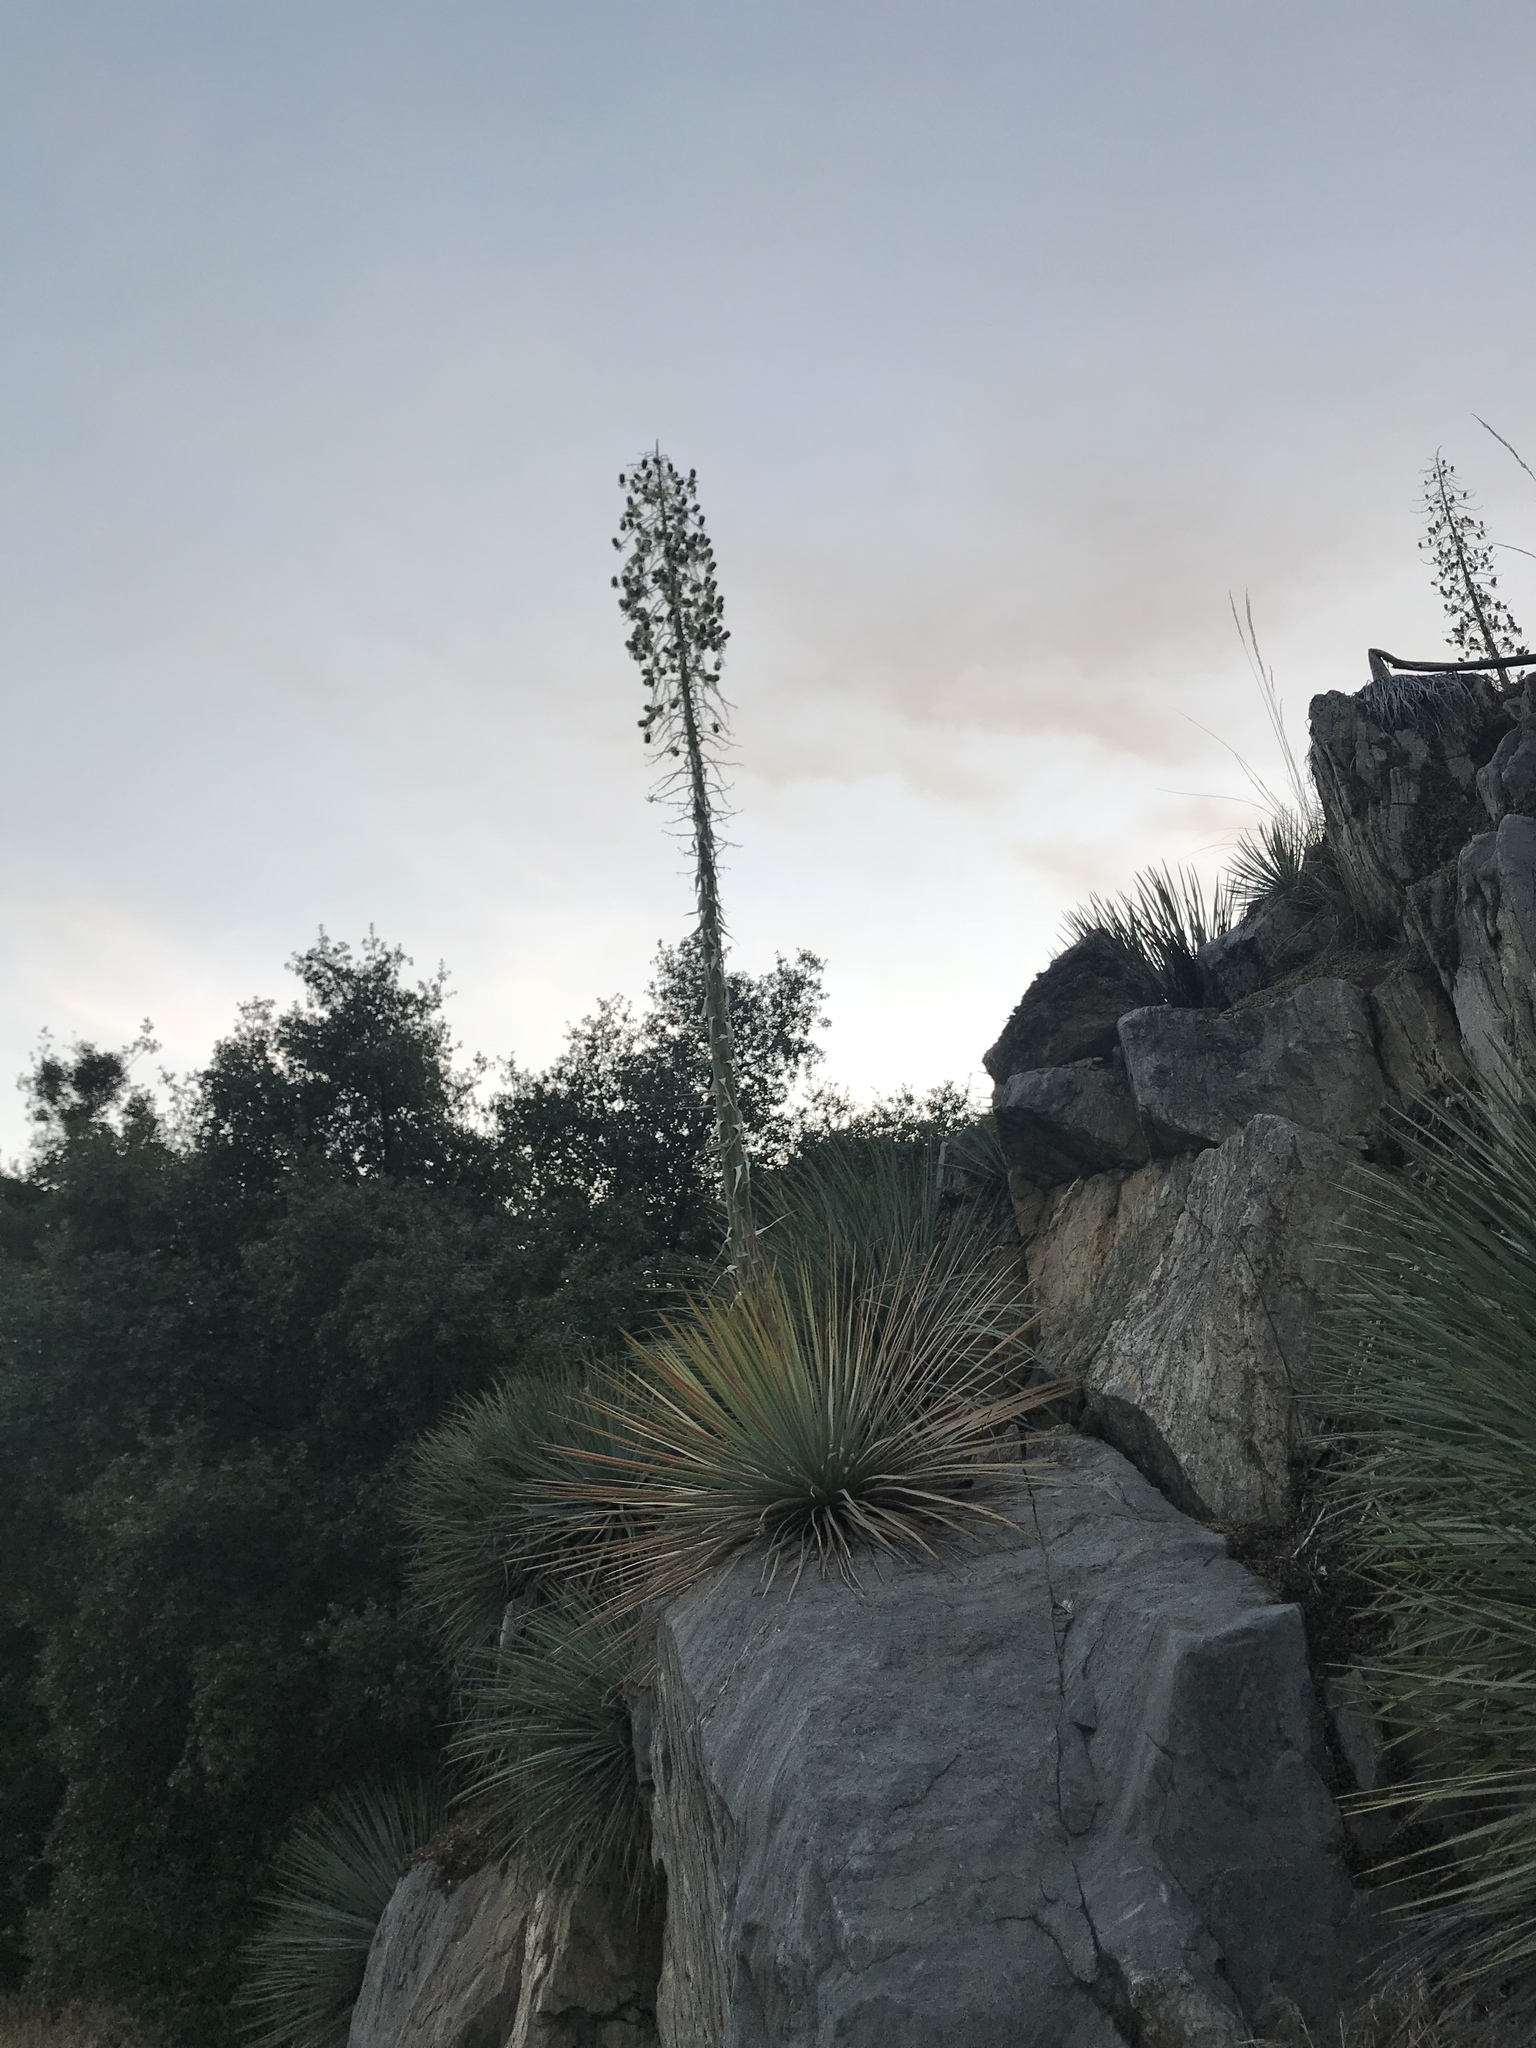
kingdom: Plantae
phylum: Tracheophyta
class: Liliopsida
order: Asparagales
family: Asparagaceae
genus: Hesperoyucca
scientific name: Hesperoyucca whipplei
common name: Our lord's-candle
